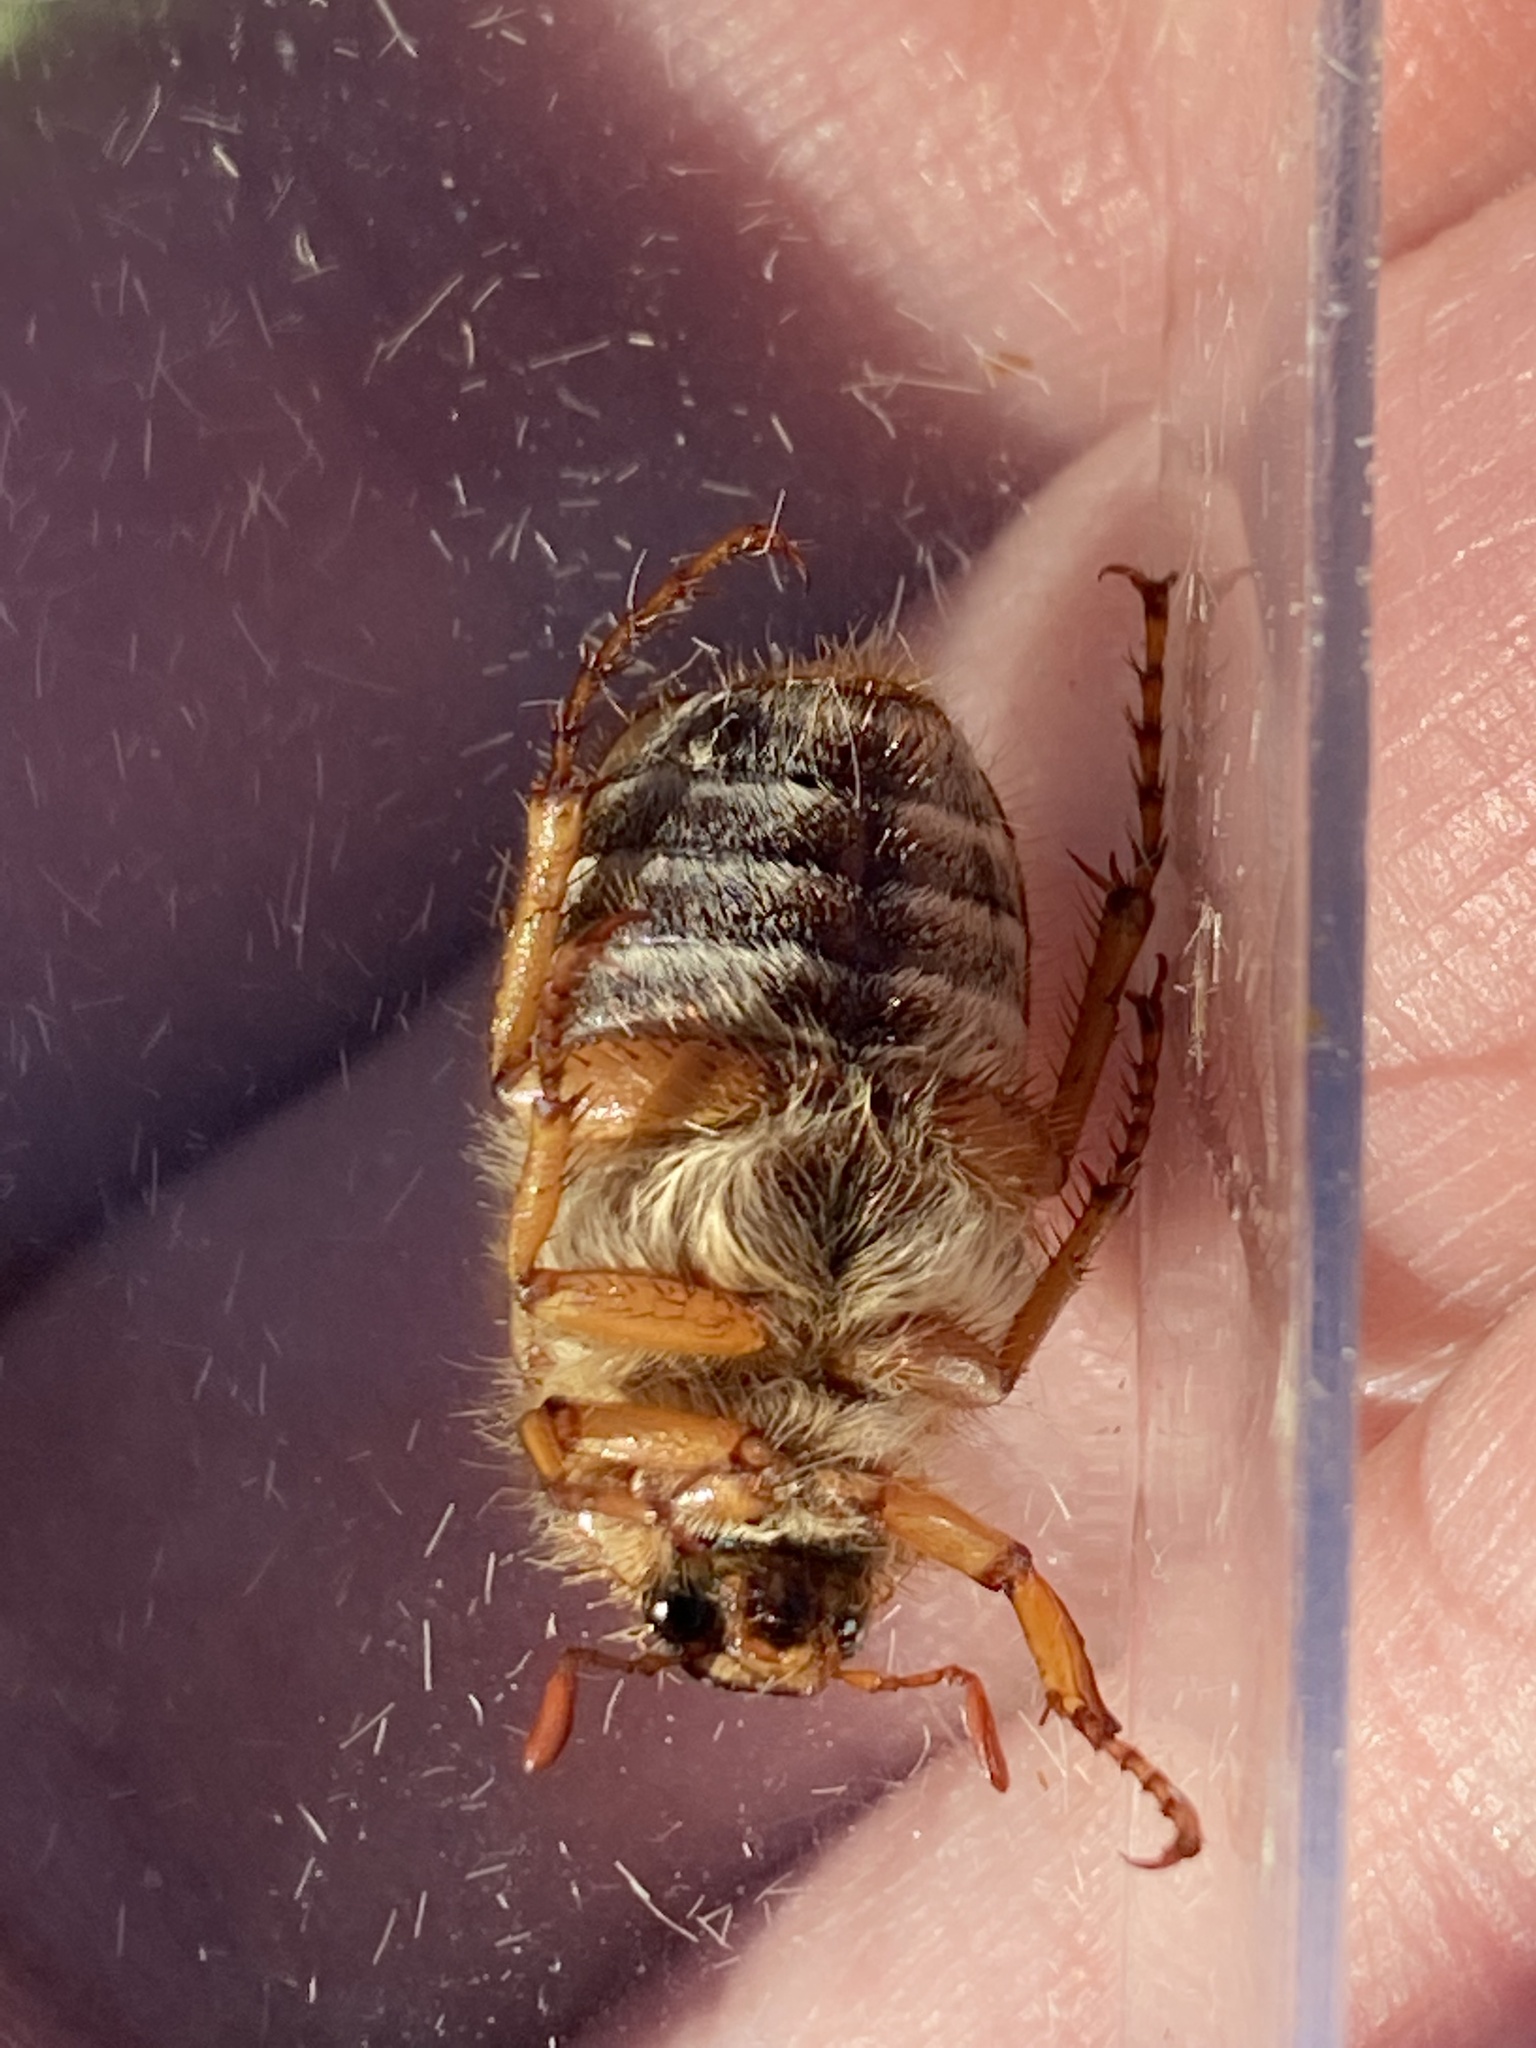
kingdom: Animalia
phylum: Arthropoda
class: Insecta
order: Coleoptera
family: Scarabaeidae
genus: Amphimallon
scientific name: Amphimallon solstitiale
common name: Summer chafer
